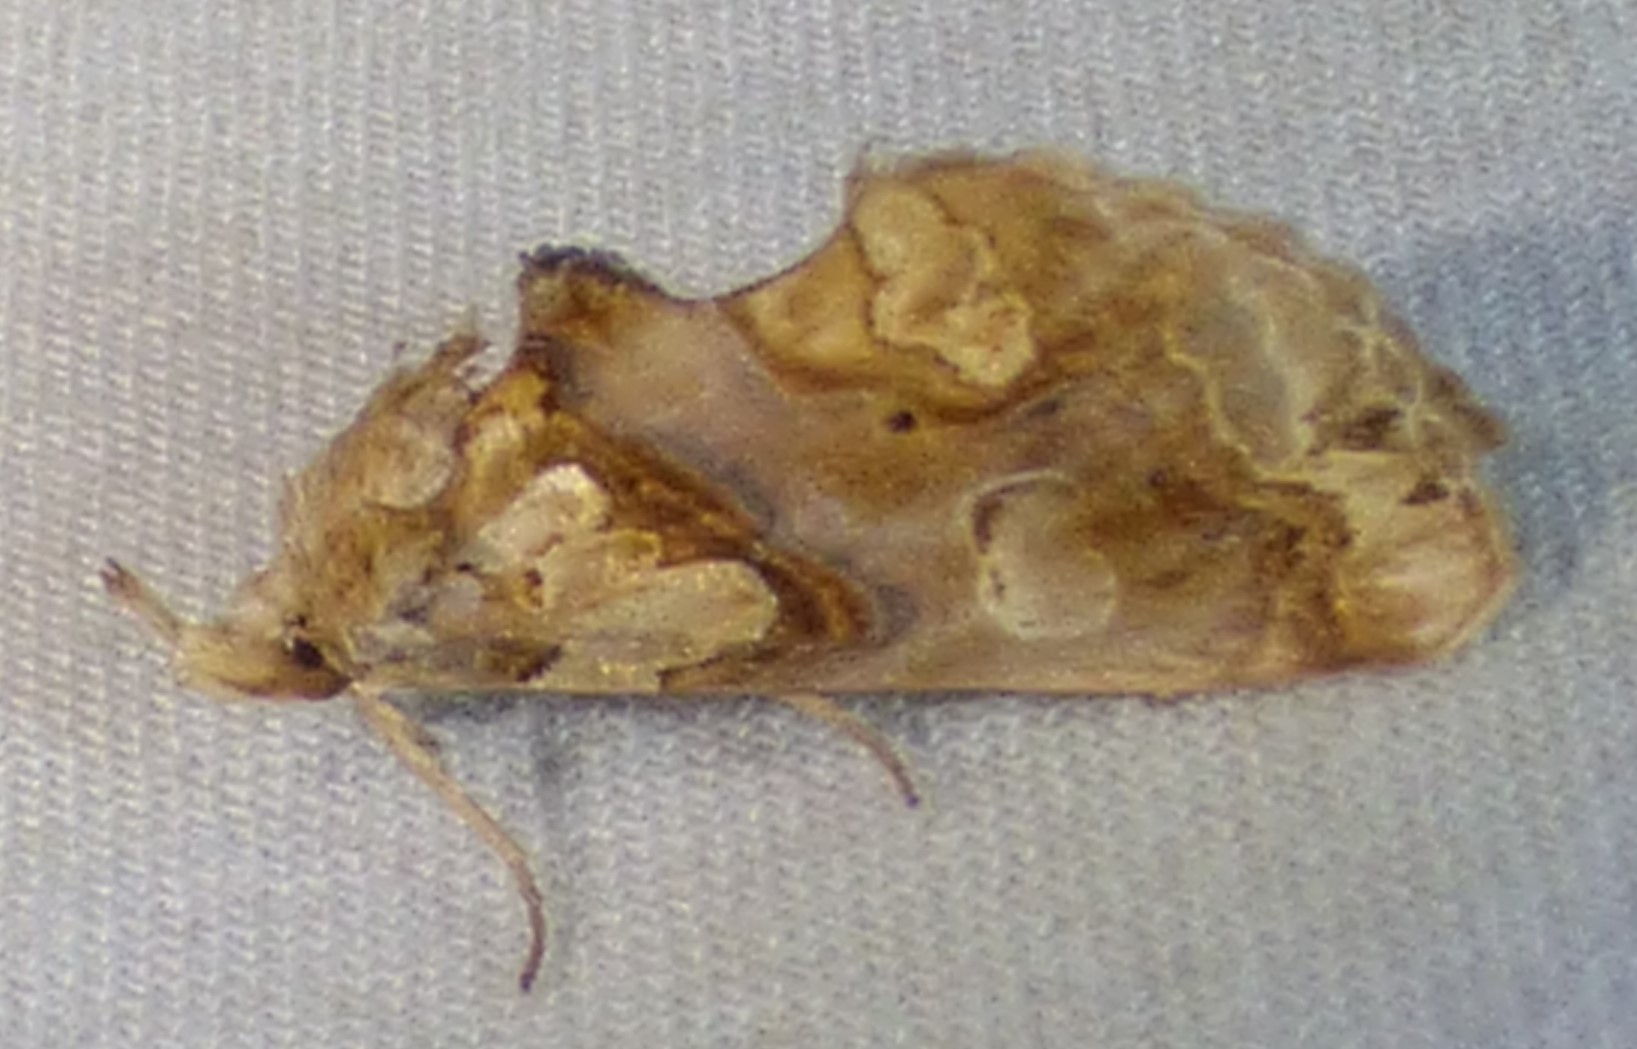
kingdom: Animalia
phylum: Arthropoda
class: Insecta
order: Lepidoptera
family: Erebidae
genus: Plusiodonta
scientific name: Plusiodonta compressipalpis
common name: Moonseed moth
